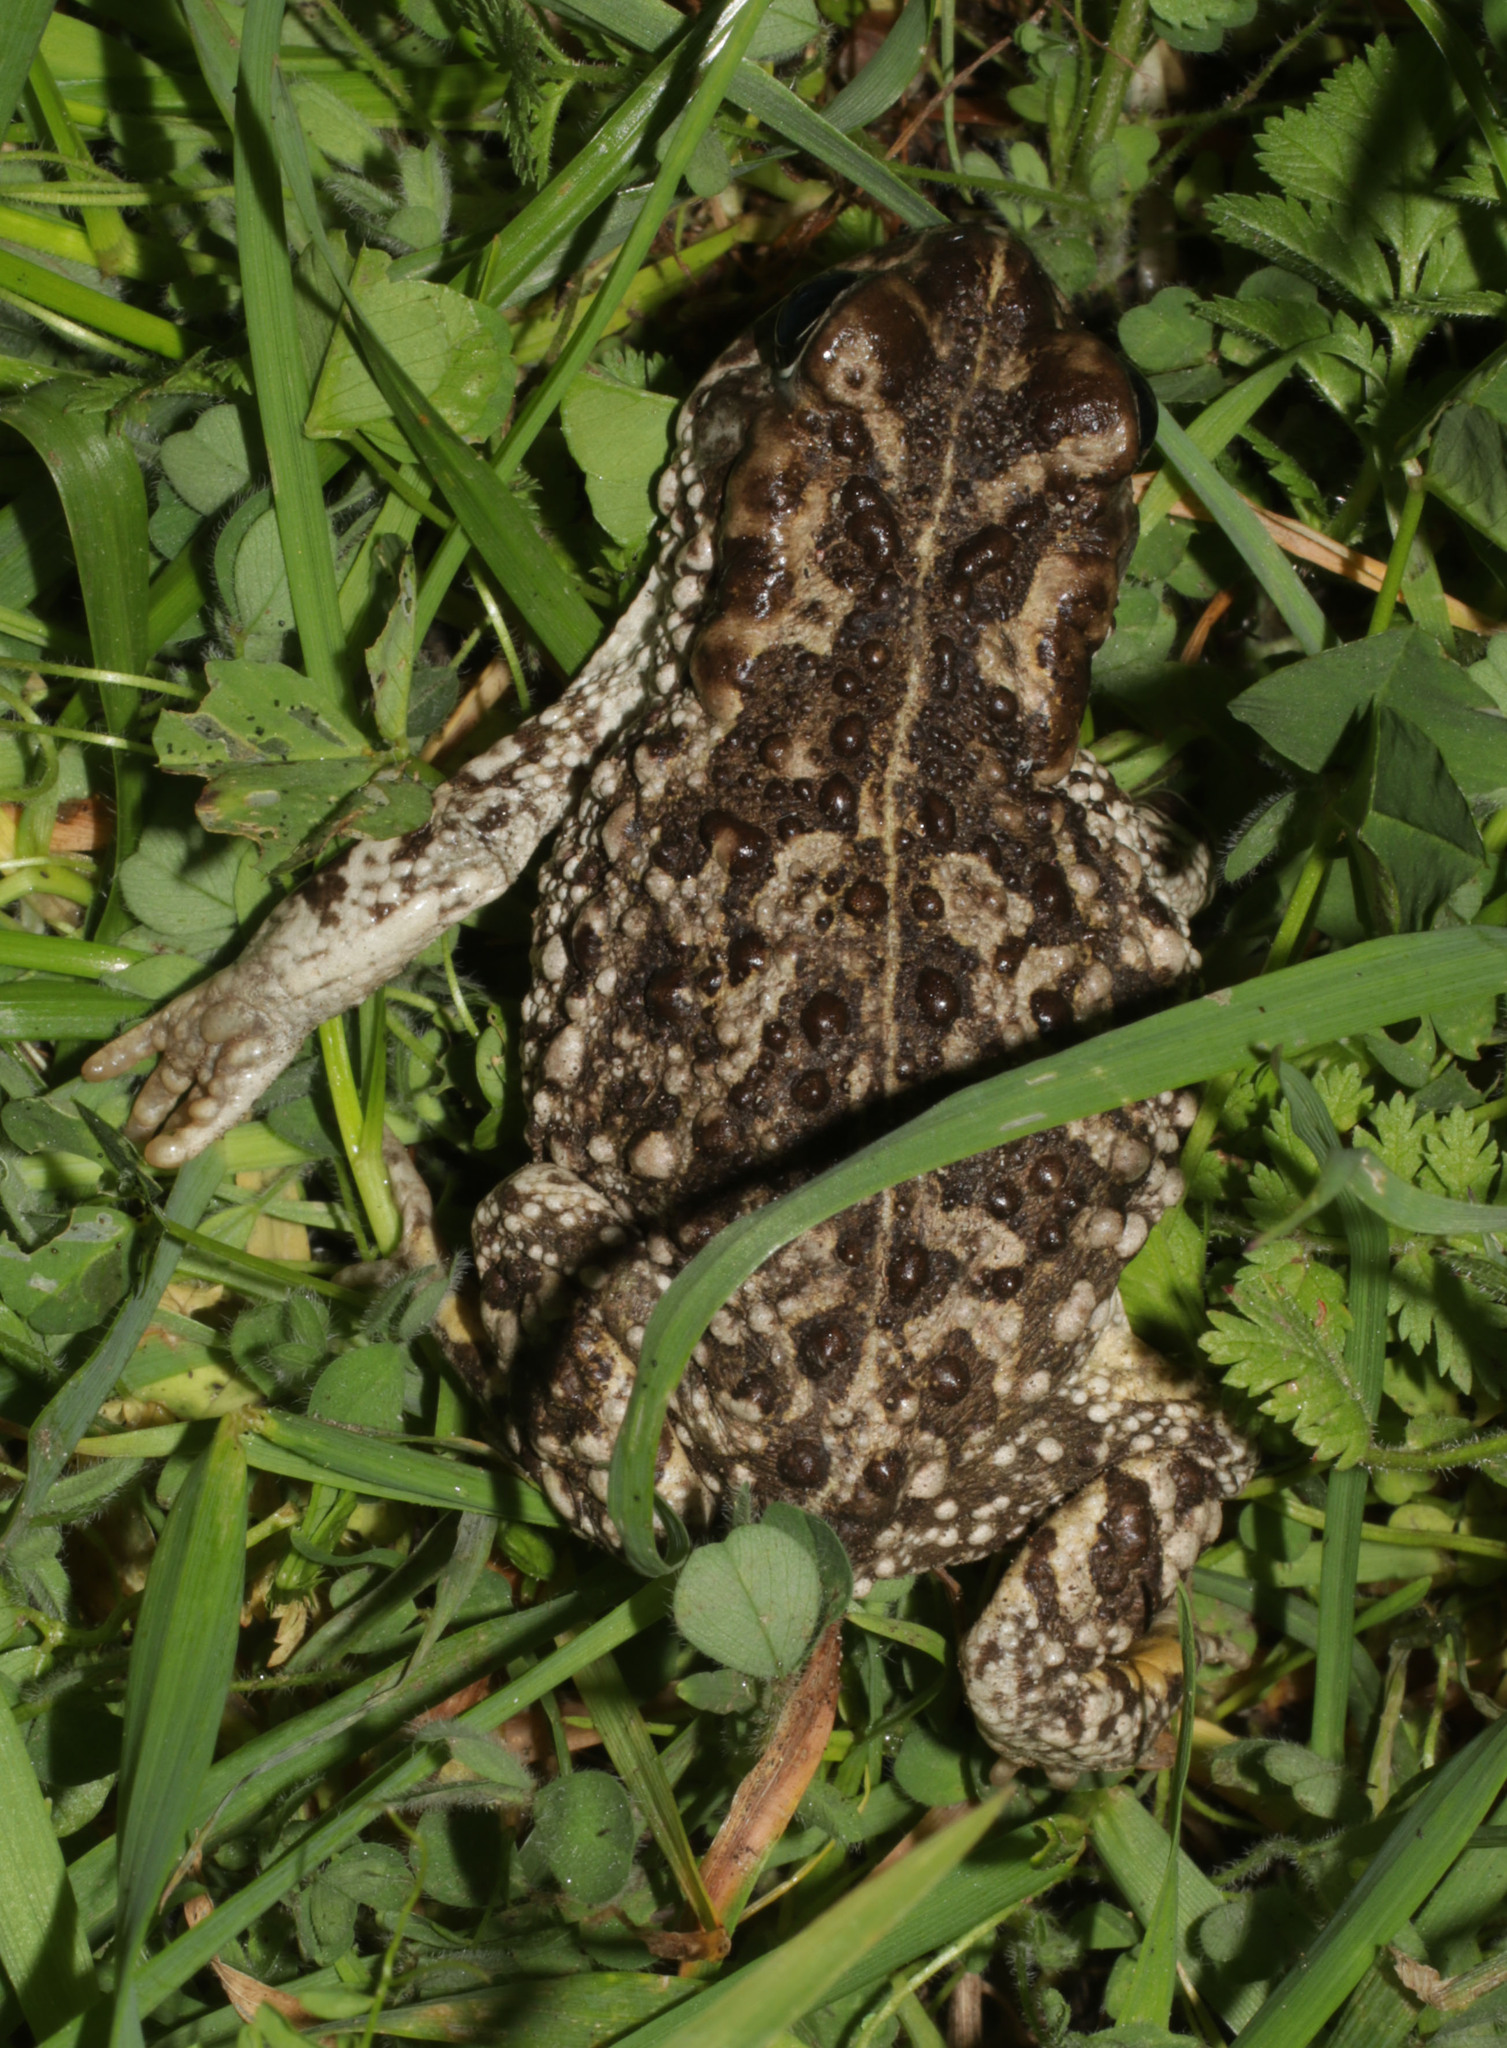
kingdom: Animalia
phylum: Chordata
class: Amphibia
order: Anura
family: Bufonidae
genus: Vandijkophrynus
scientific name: Vandijkophrynus angusticeps
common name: Sand toad
